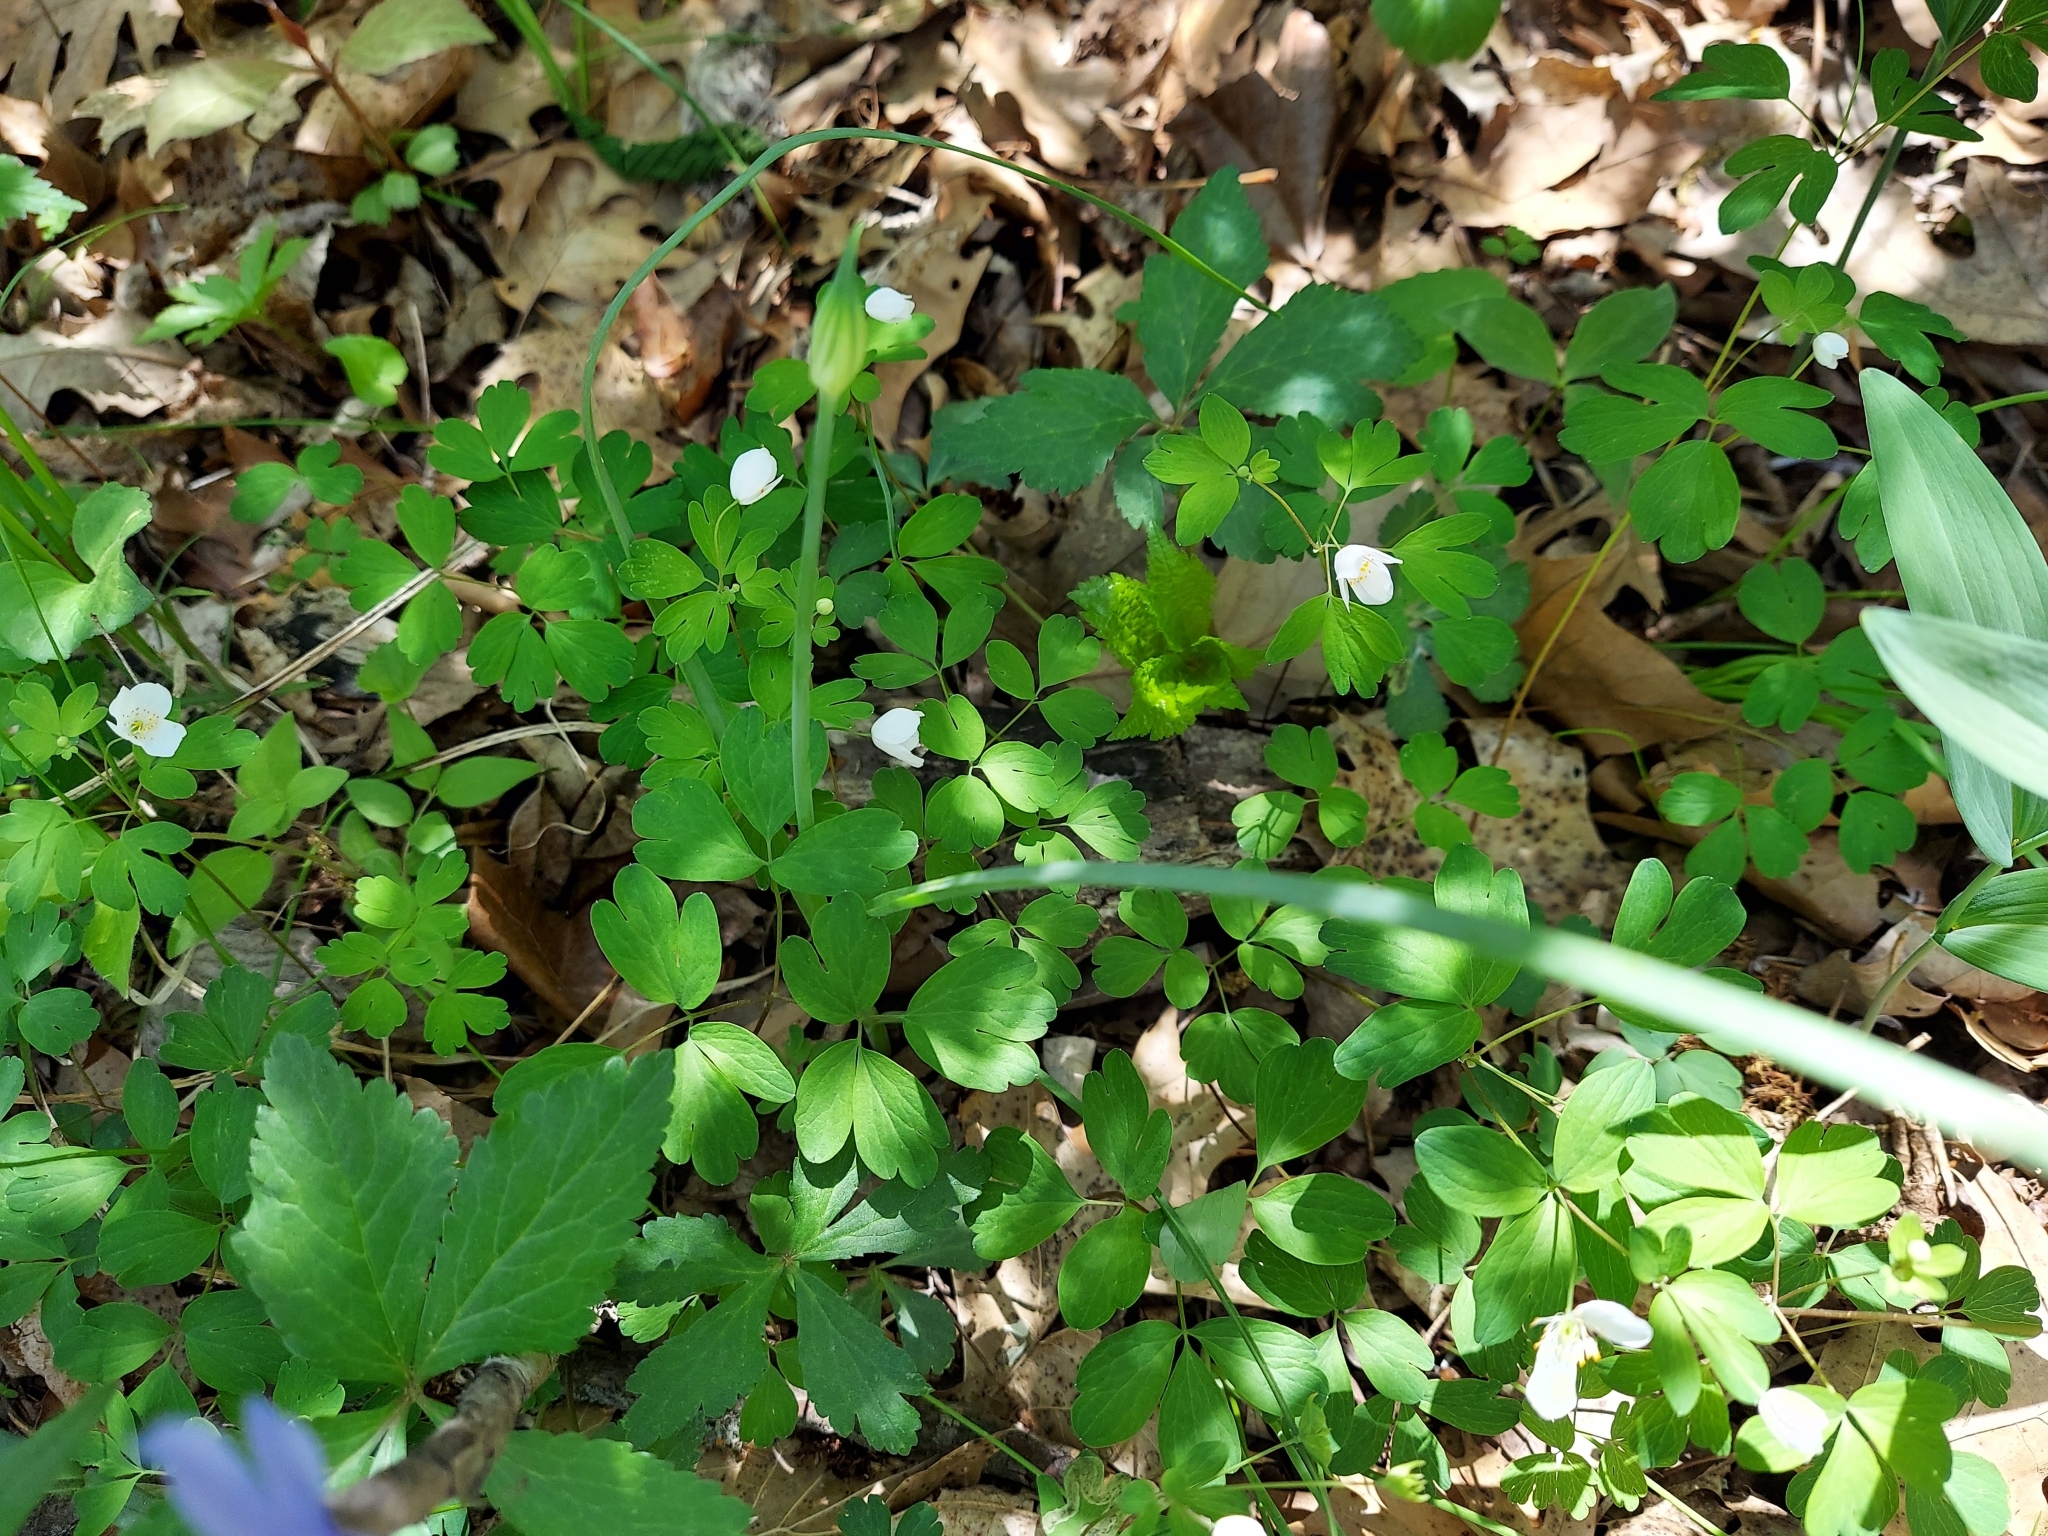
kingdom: Plantae
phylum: Tracheophyta
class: Magnoliopsida
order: Ranunculales
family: Ranunculaceae
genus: Enemion
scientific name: Enemion biternatum
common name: Eastern false rue-anemone
